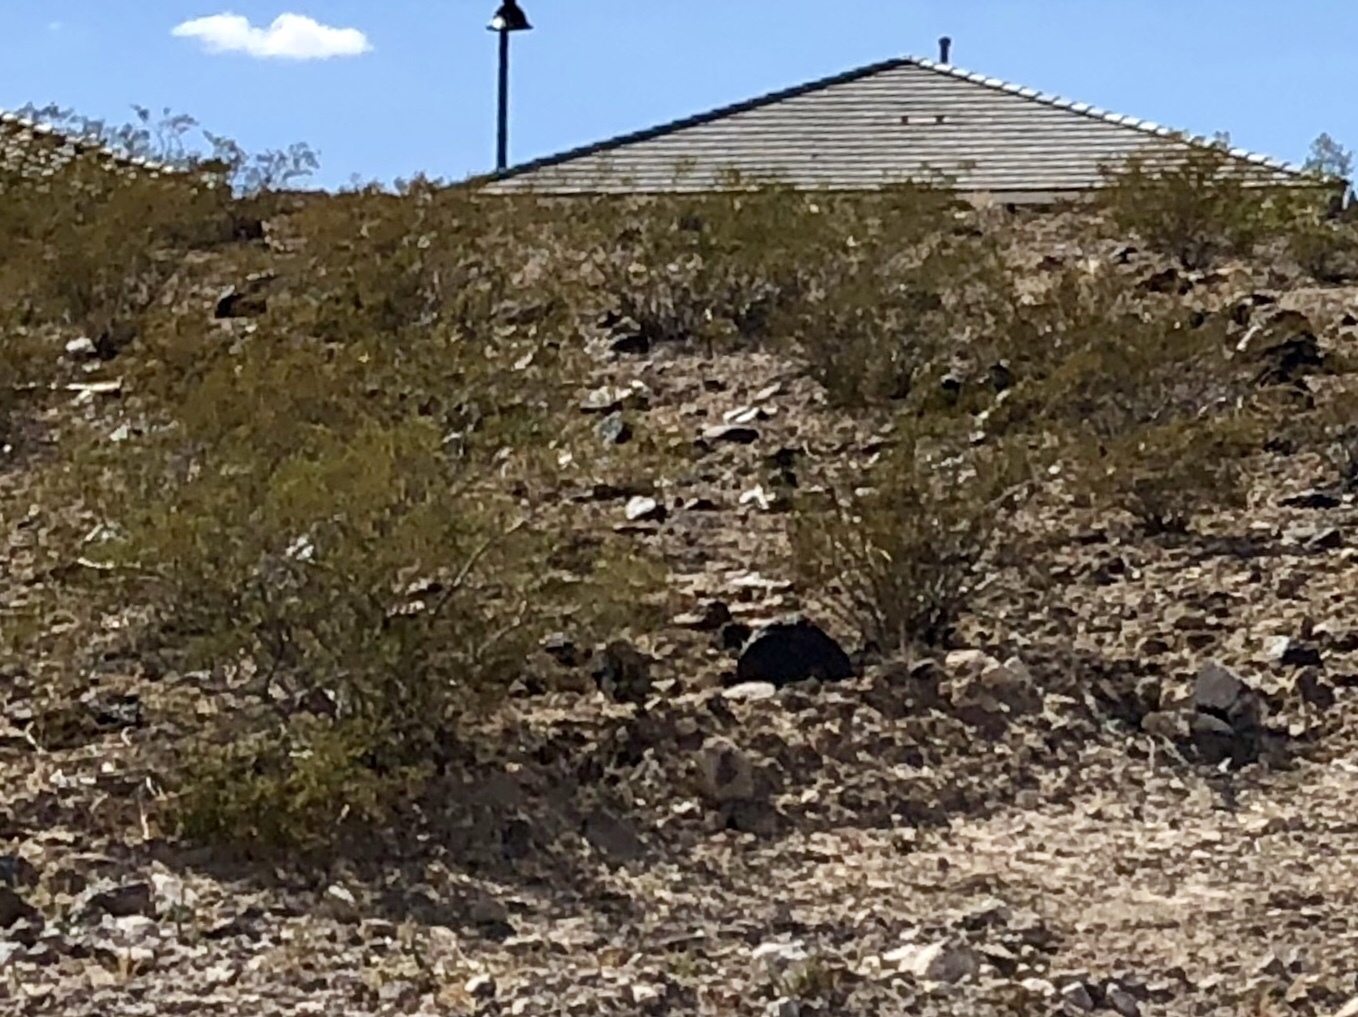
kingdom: Plantae
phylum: Tracheophyta
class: Magnoliopsida
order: Zygophyllales
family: Zygophyllaceae
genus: Larrea
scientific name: Larrea tridentata
